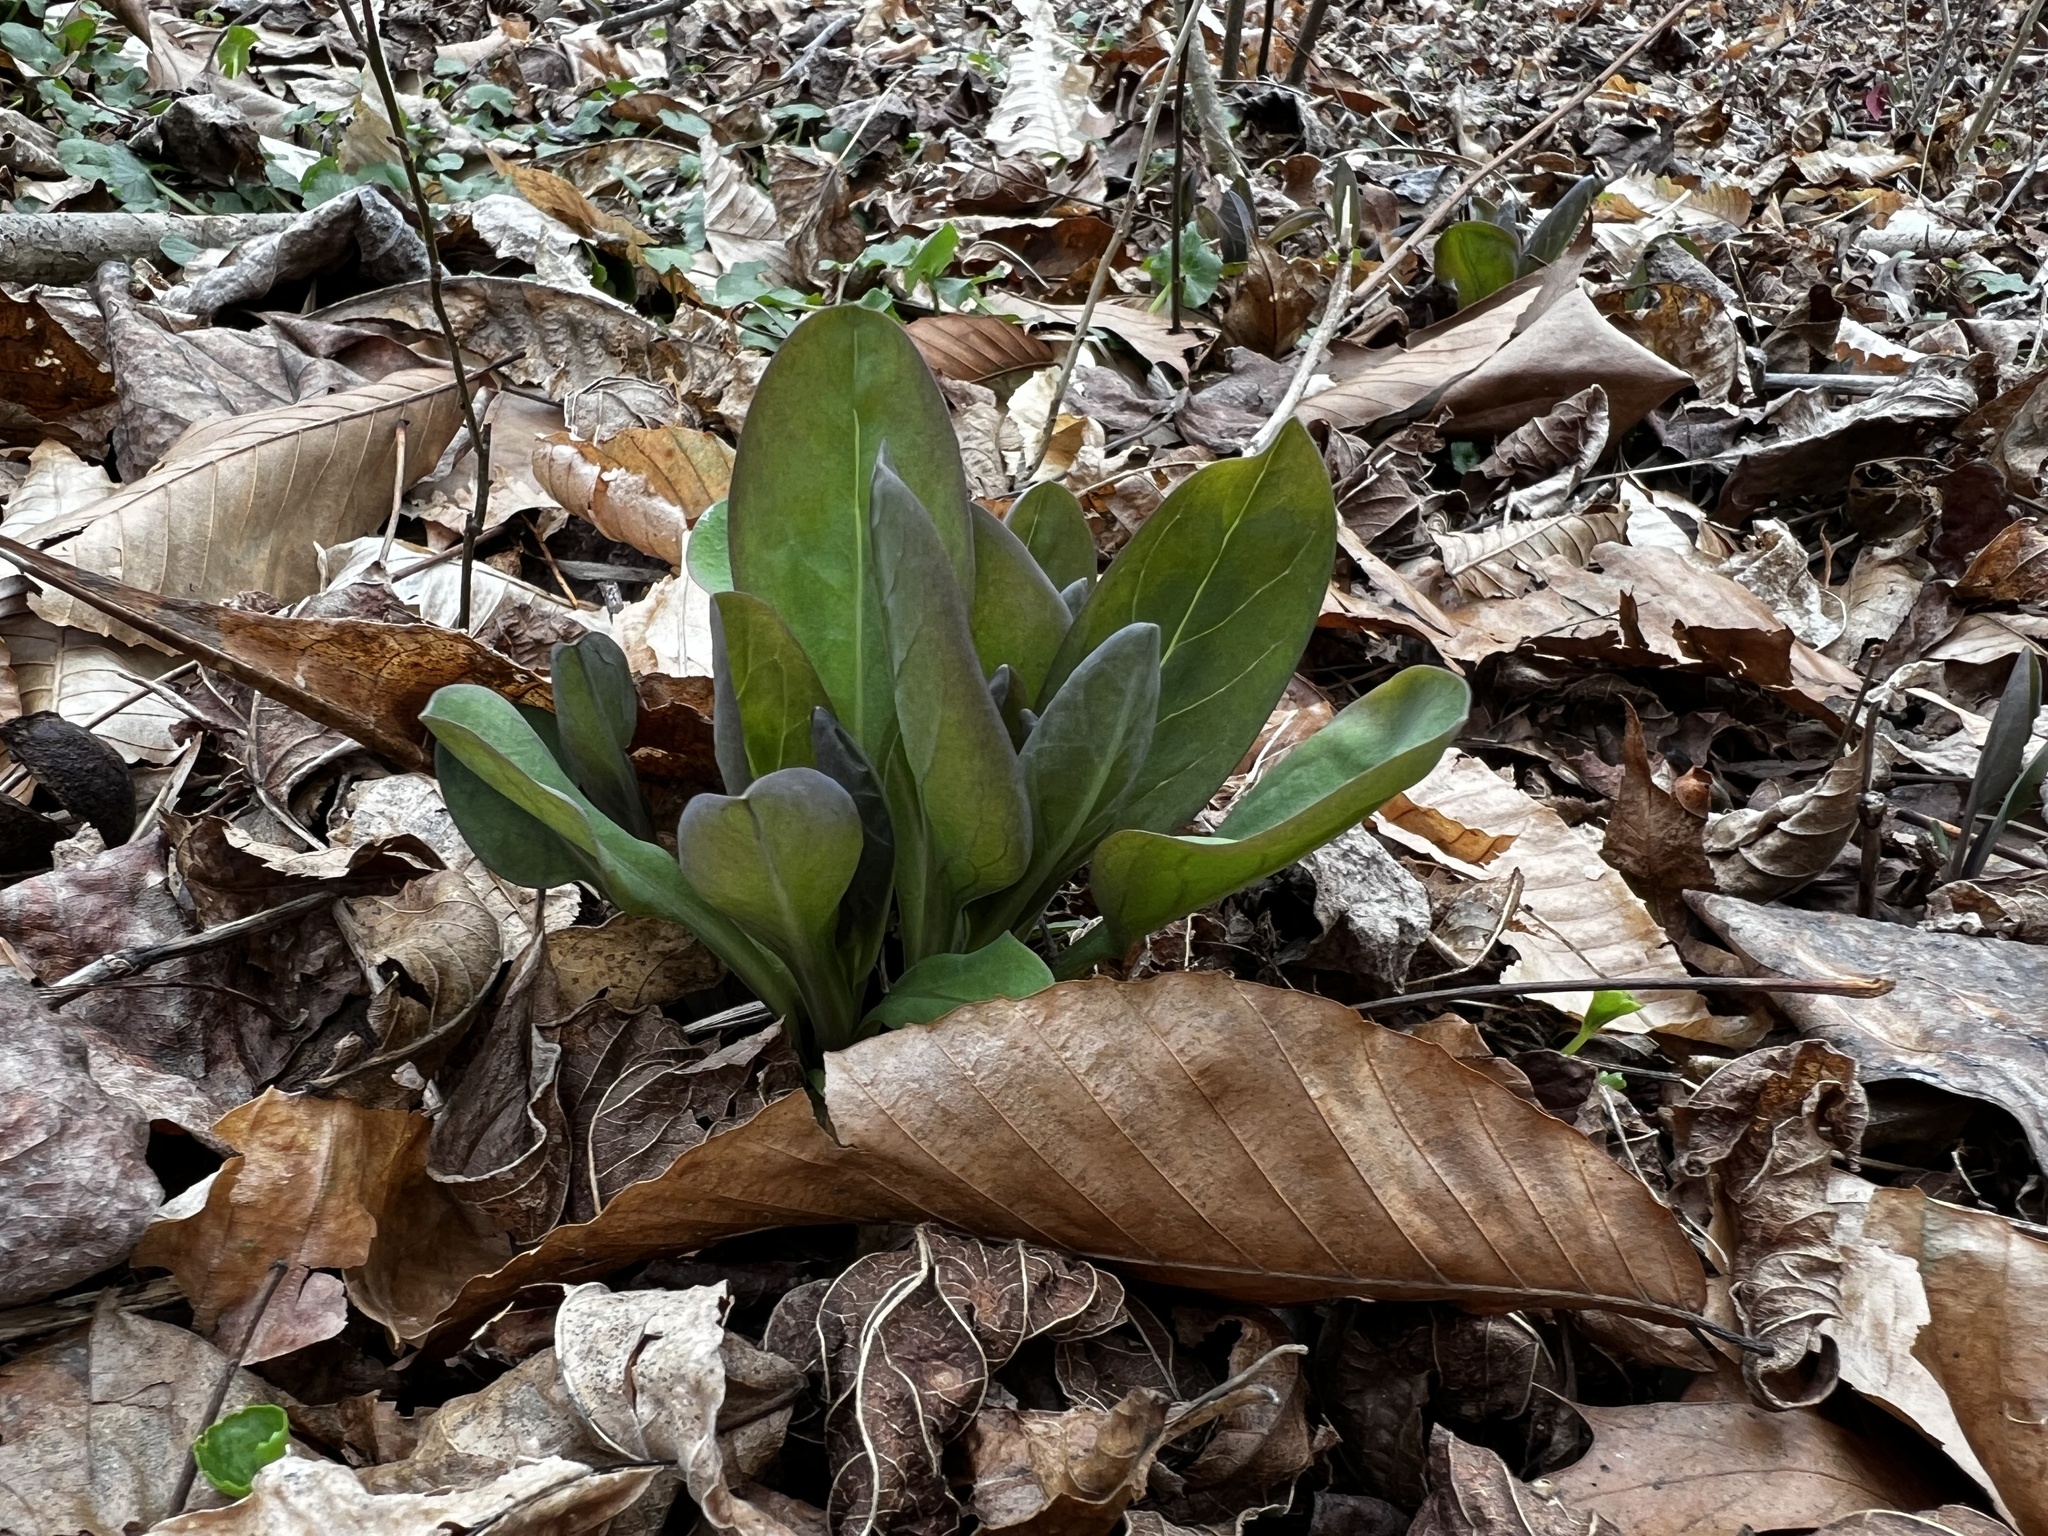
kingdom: Plantae
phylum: Tracheophyta
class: Magnoliopsida
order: Boraginales
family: Boraginaceae
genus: Mertensia
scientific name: Mertensia virginica
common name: Virginia bluebells
